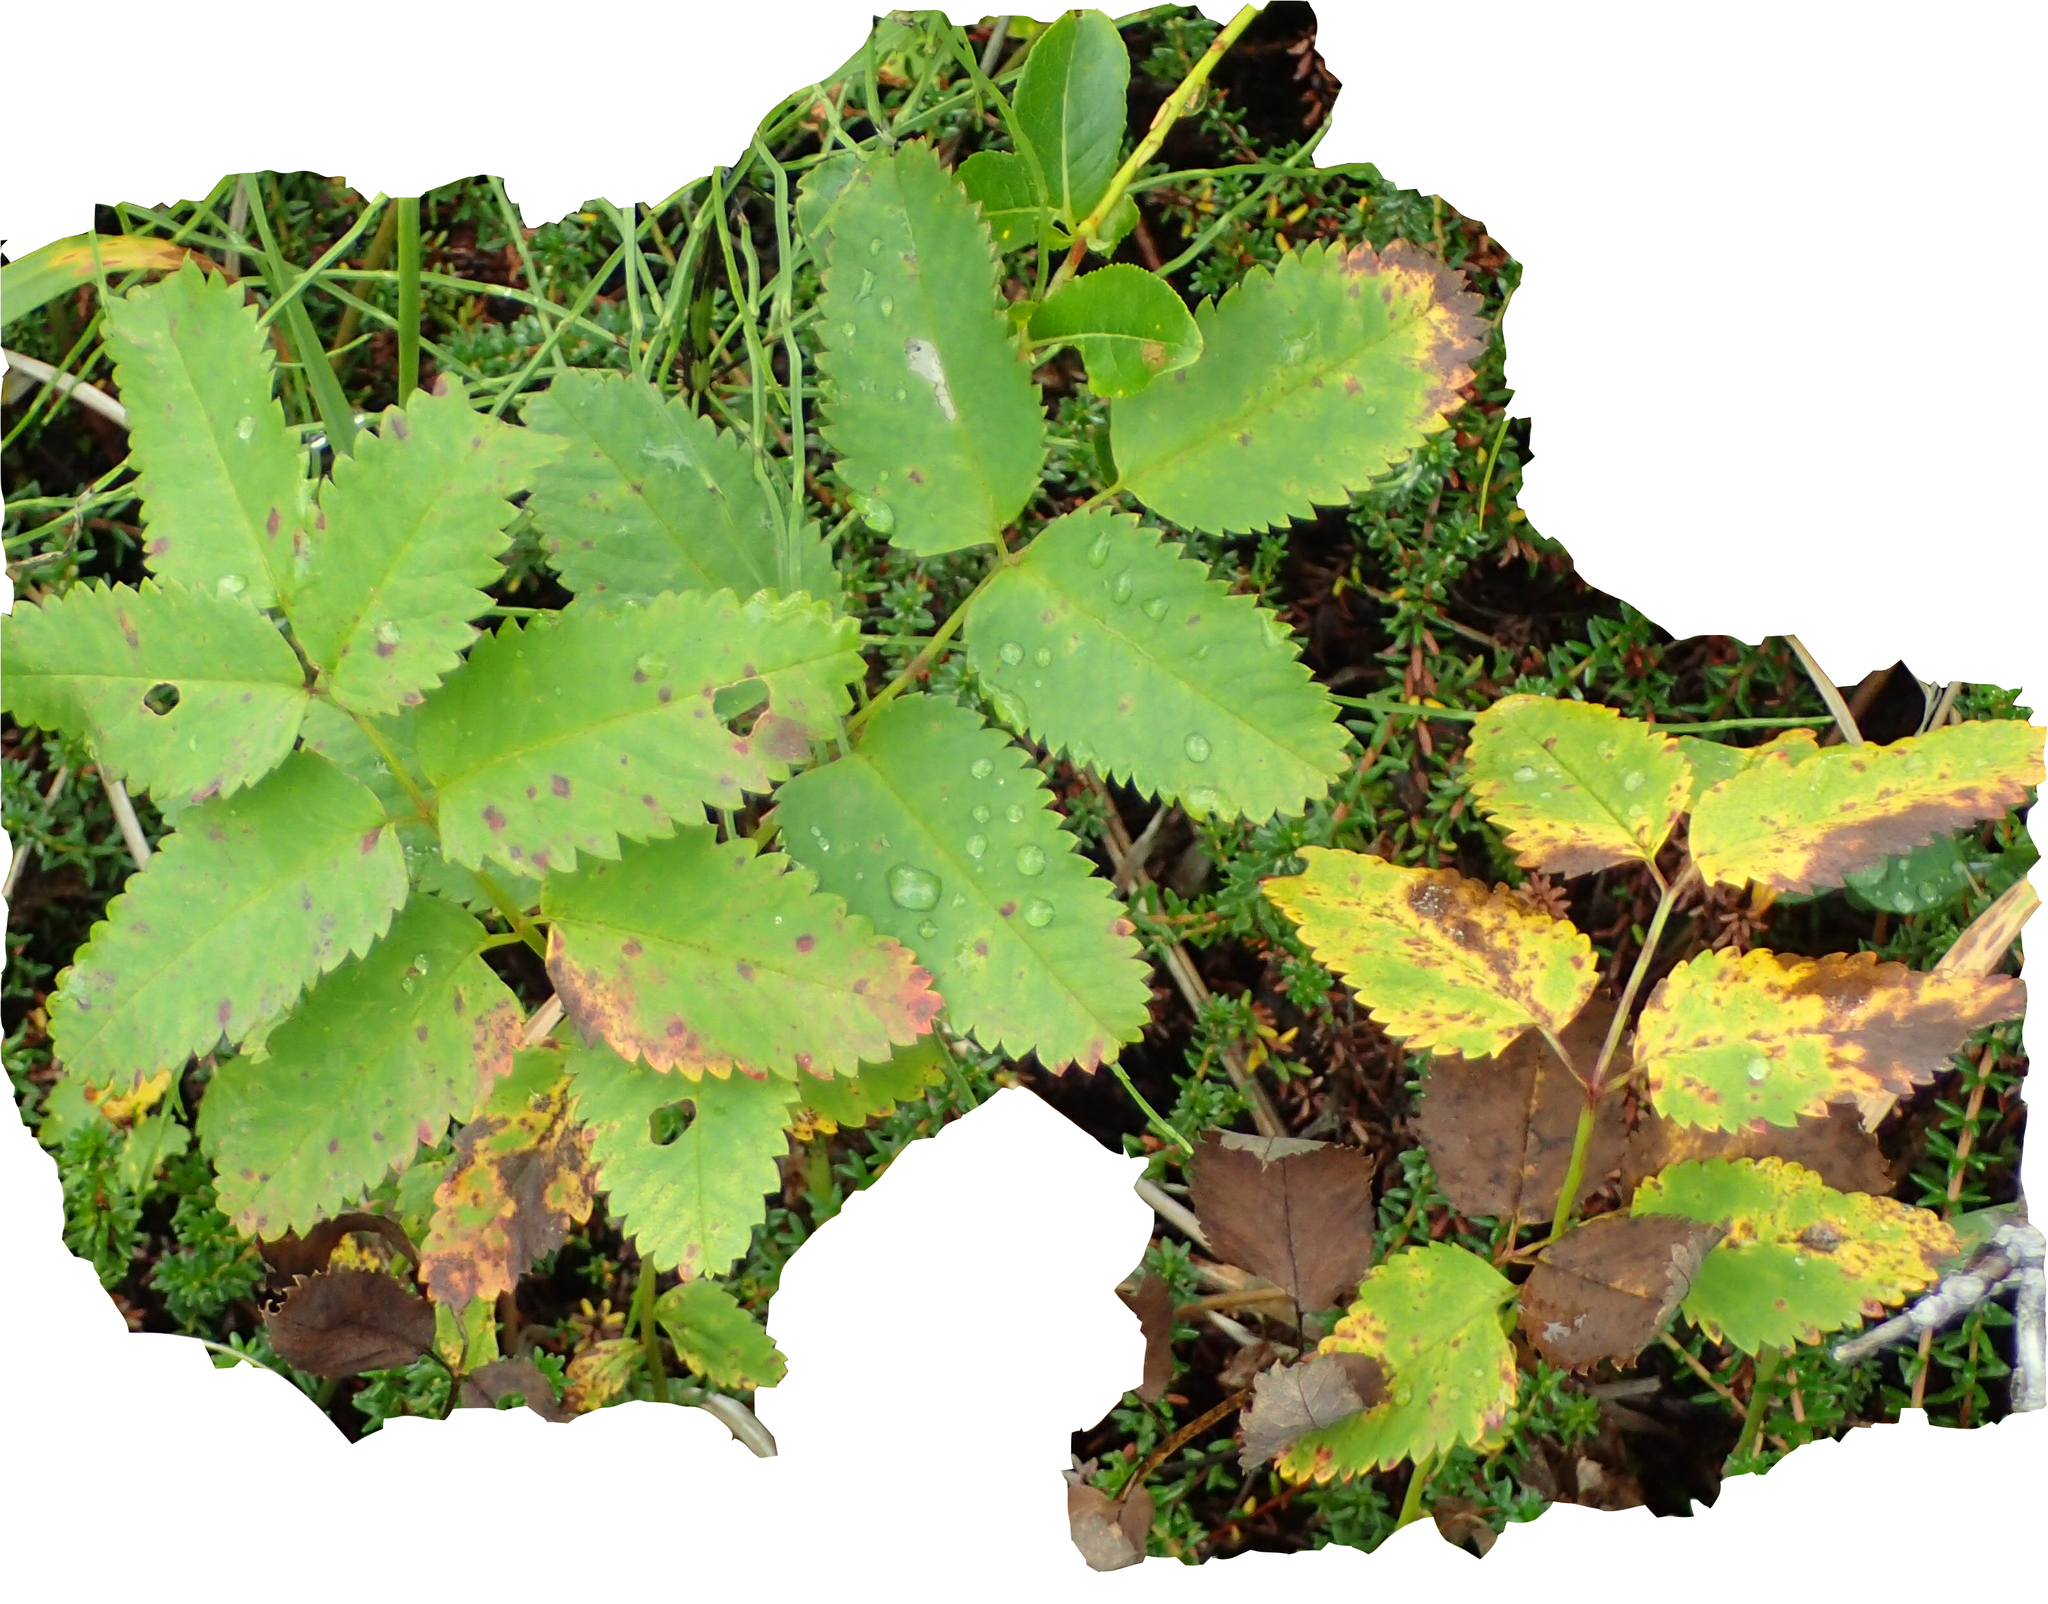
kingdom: Plantae
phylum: Tracheophyta
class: Magnoliopsida
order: Rosales
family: Rosaceae
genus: Sanguisorba
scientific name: Sanguisorba stipulata
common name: Sitka burnet
